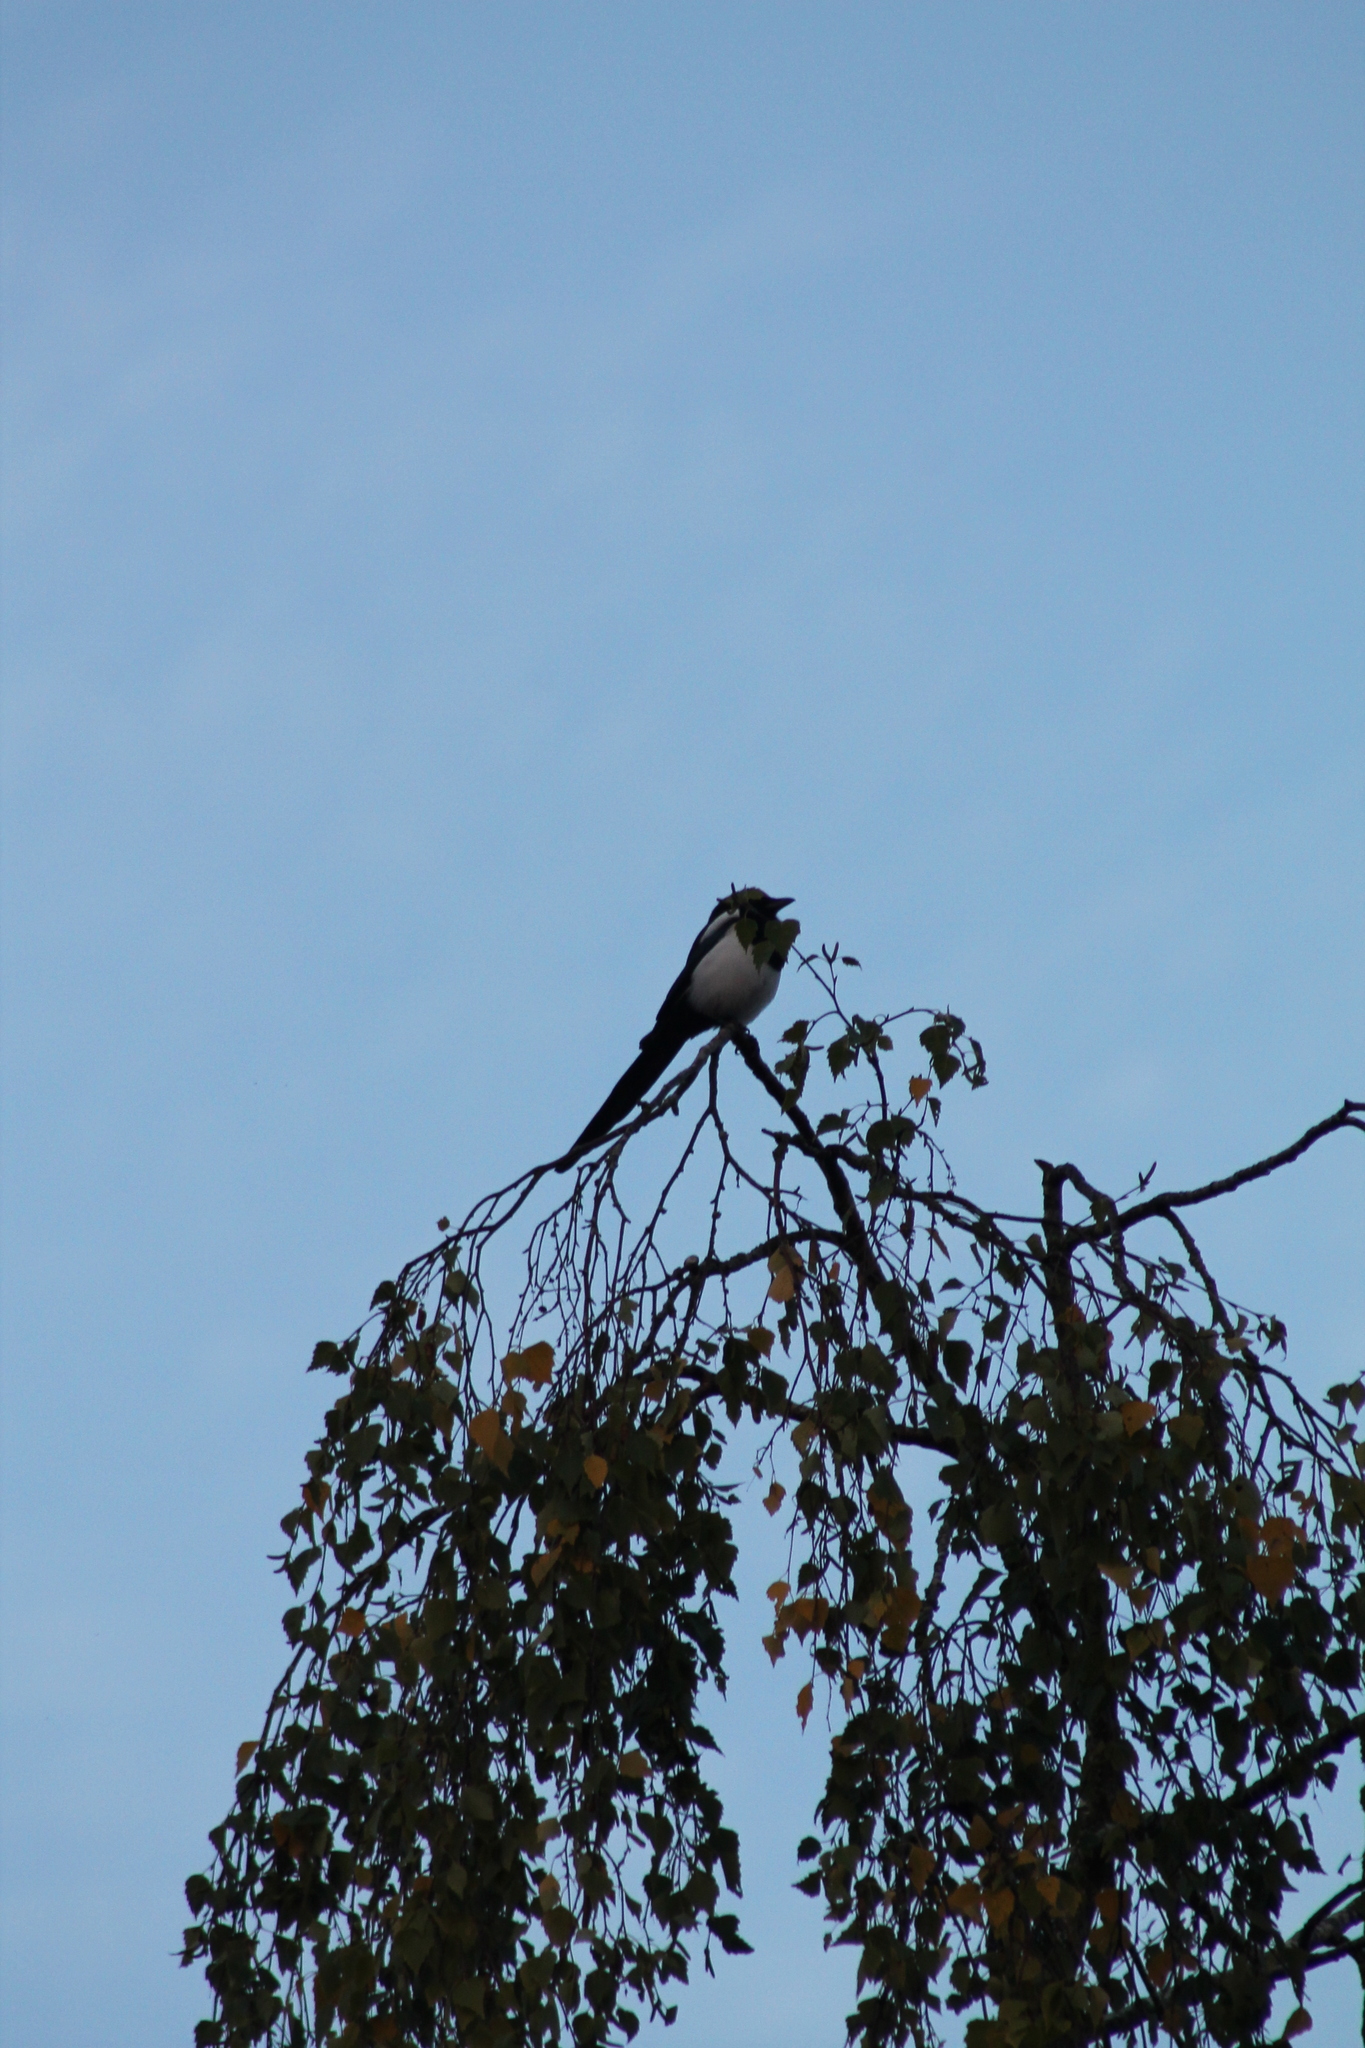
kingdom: Animalia
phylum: Chordata
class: Aves
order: Passeriformes
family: Corvidae
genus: Pica
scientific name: Pica pica
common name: Eurasian magpie
